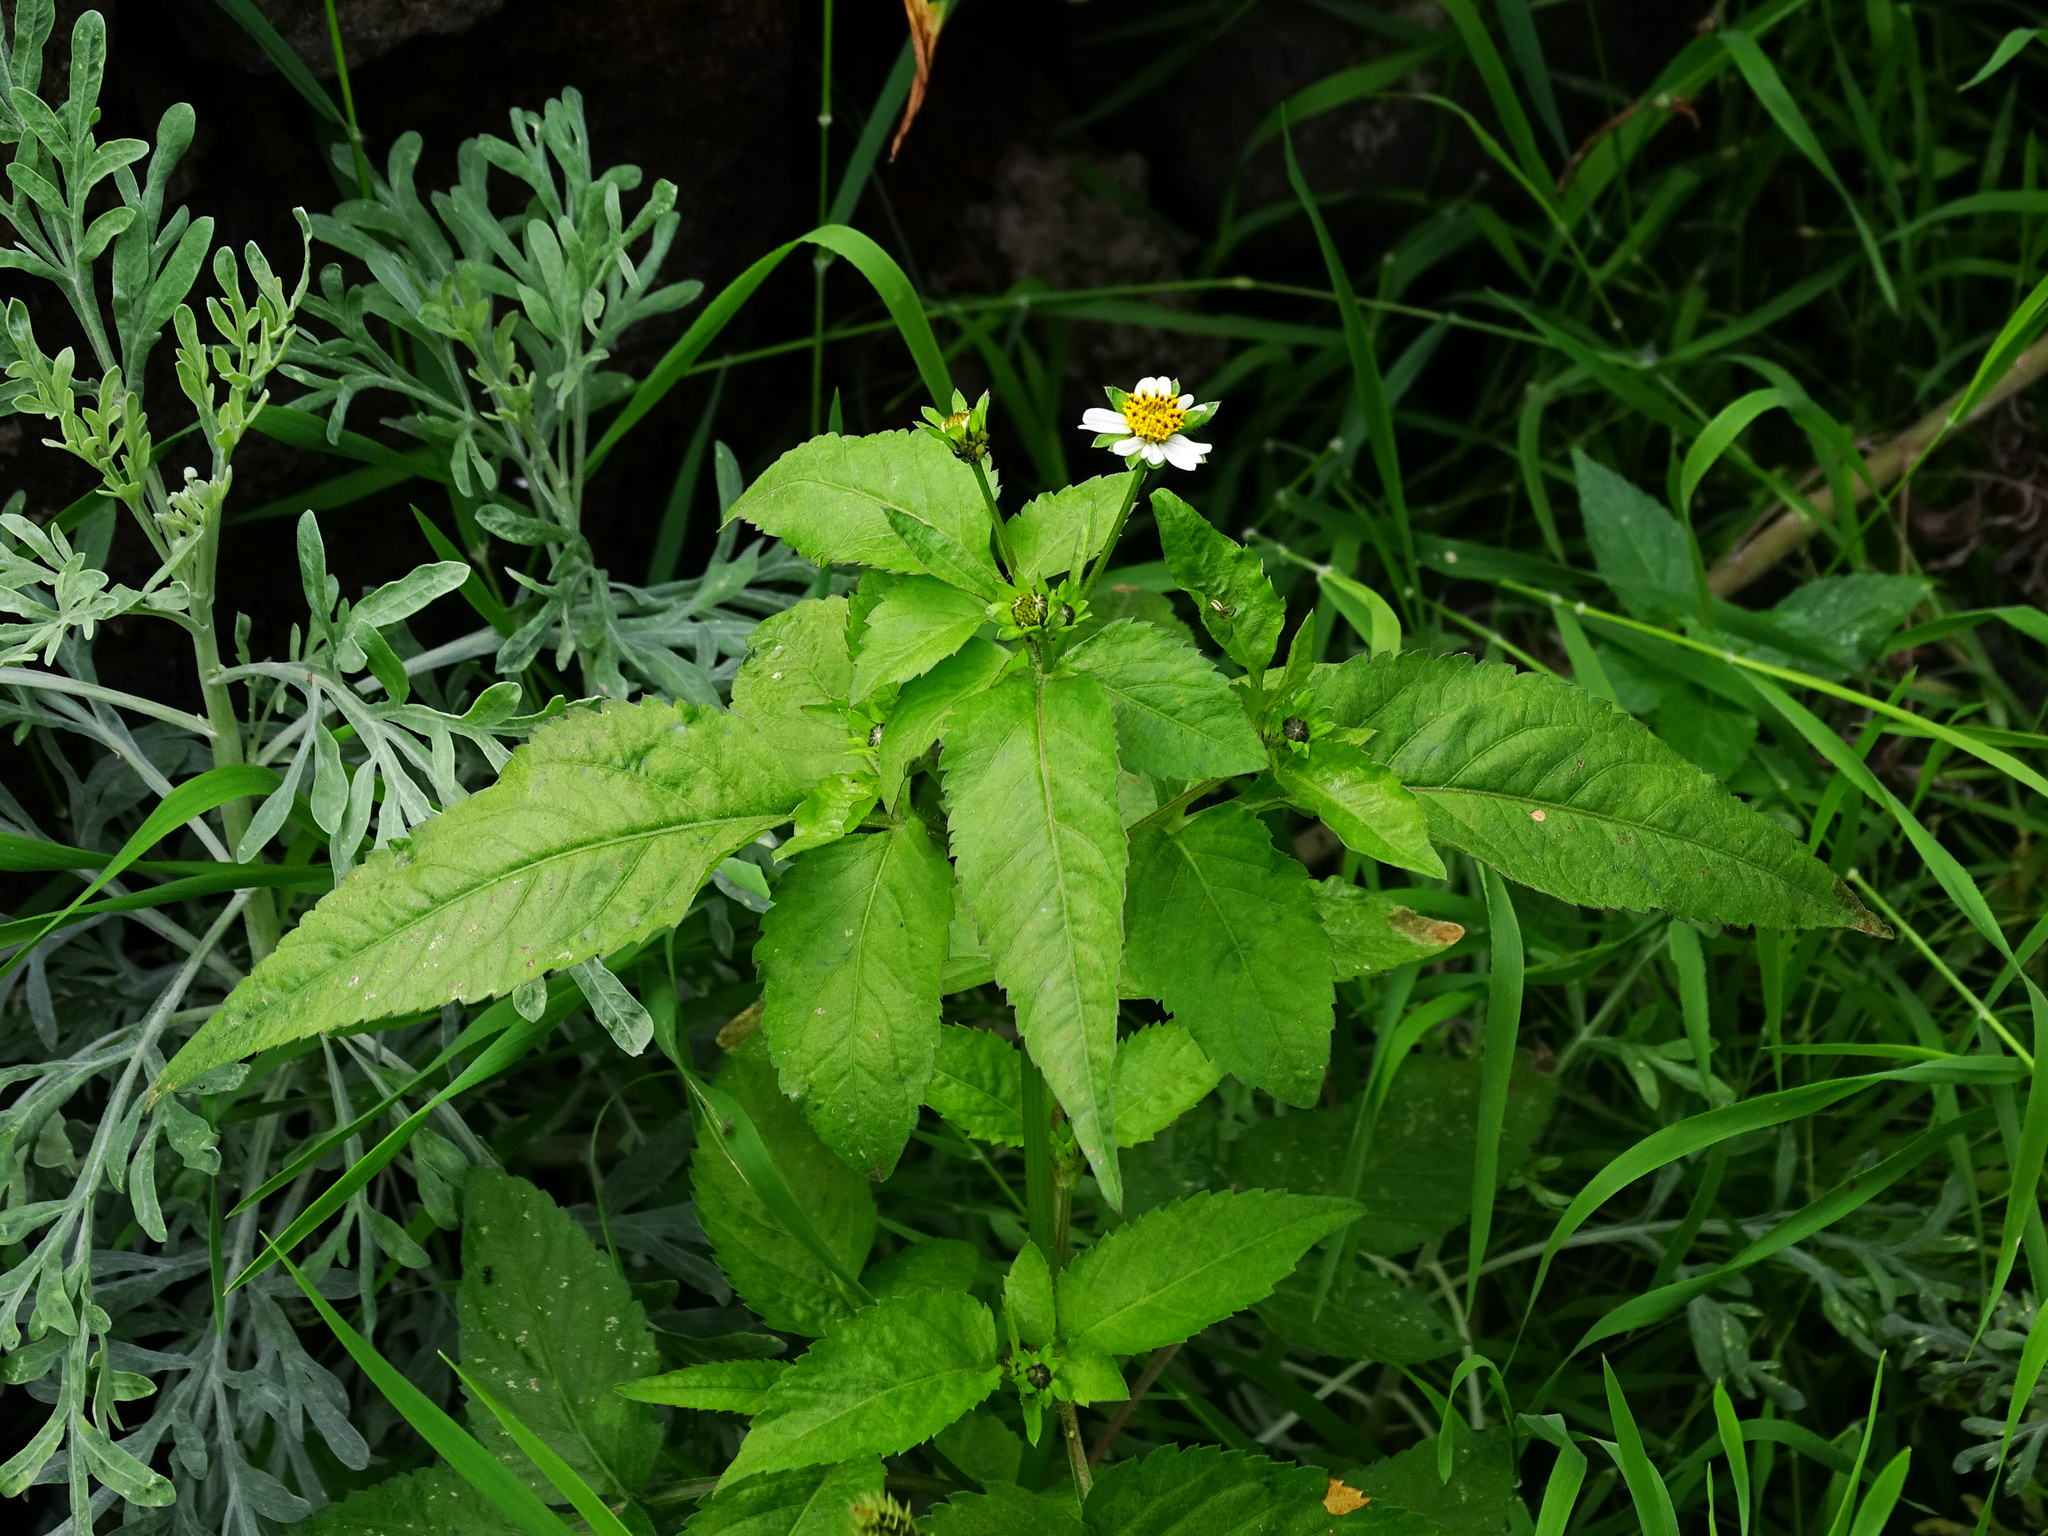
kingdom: Plantae
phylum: Tracheophyta
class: Magnoliopsida
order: Asterales
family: Asteraceae
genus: Bidens
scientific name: Bidens pilosa
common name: Black-jack
